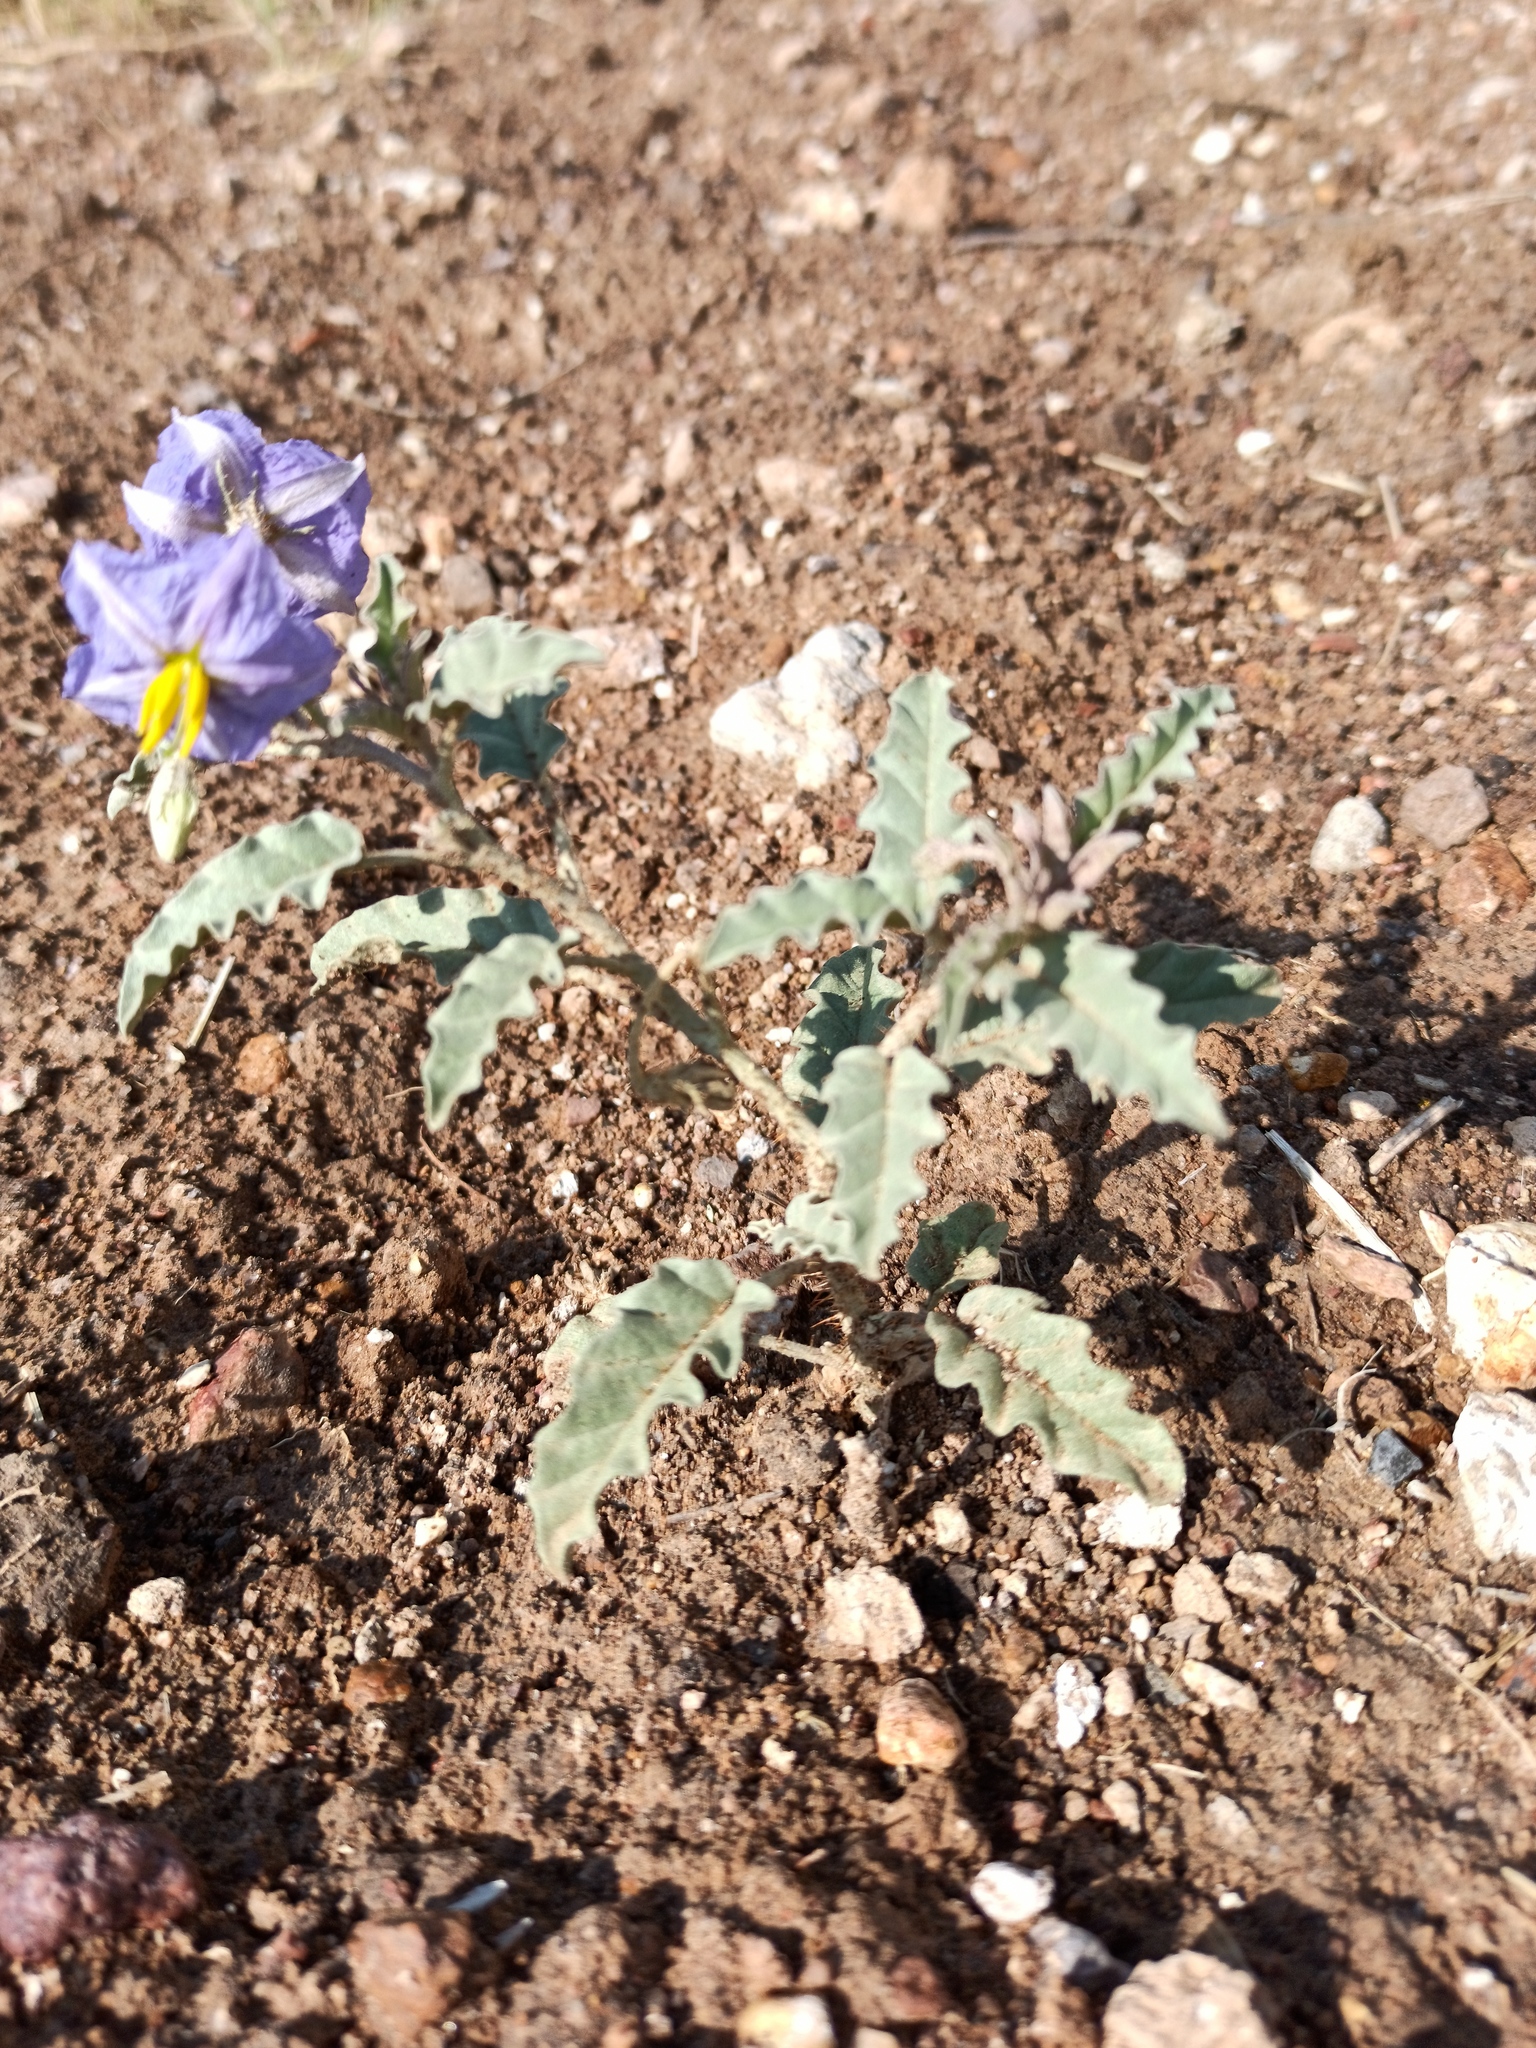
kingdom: Plantae
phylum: Tracheophyta
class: Magnoliopsida
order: Solanales
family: Solanaceae
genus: Solanum
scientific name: Solanum elaeagnifolium
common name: Silverleaf nightshade
